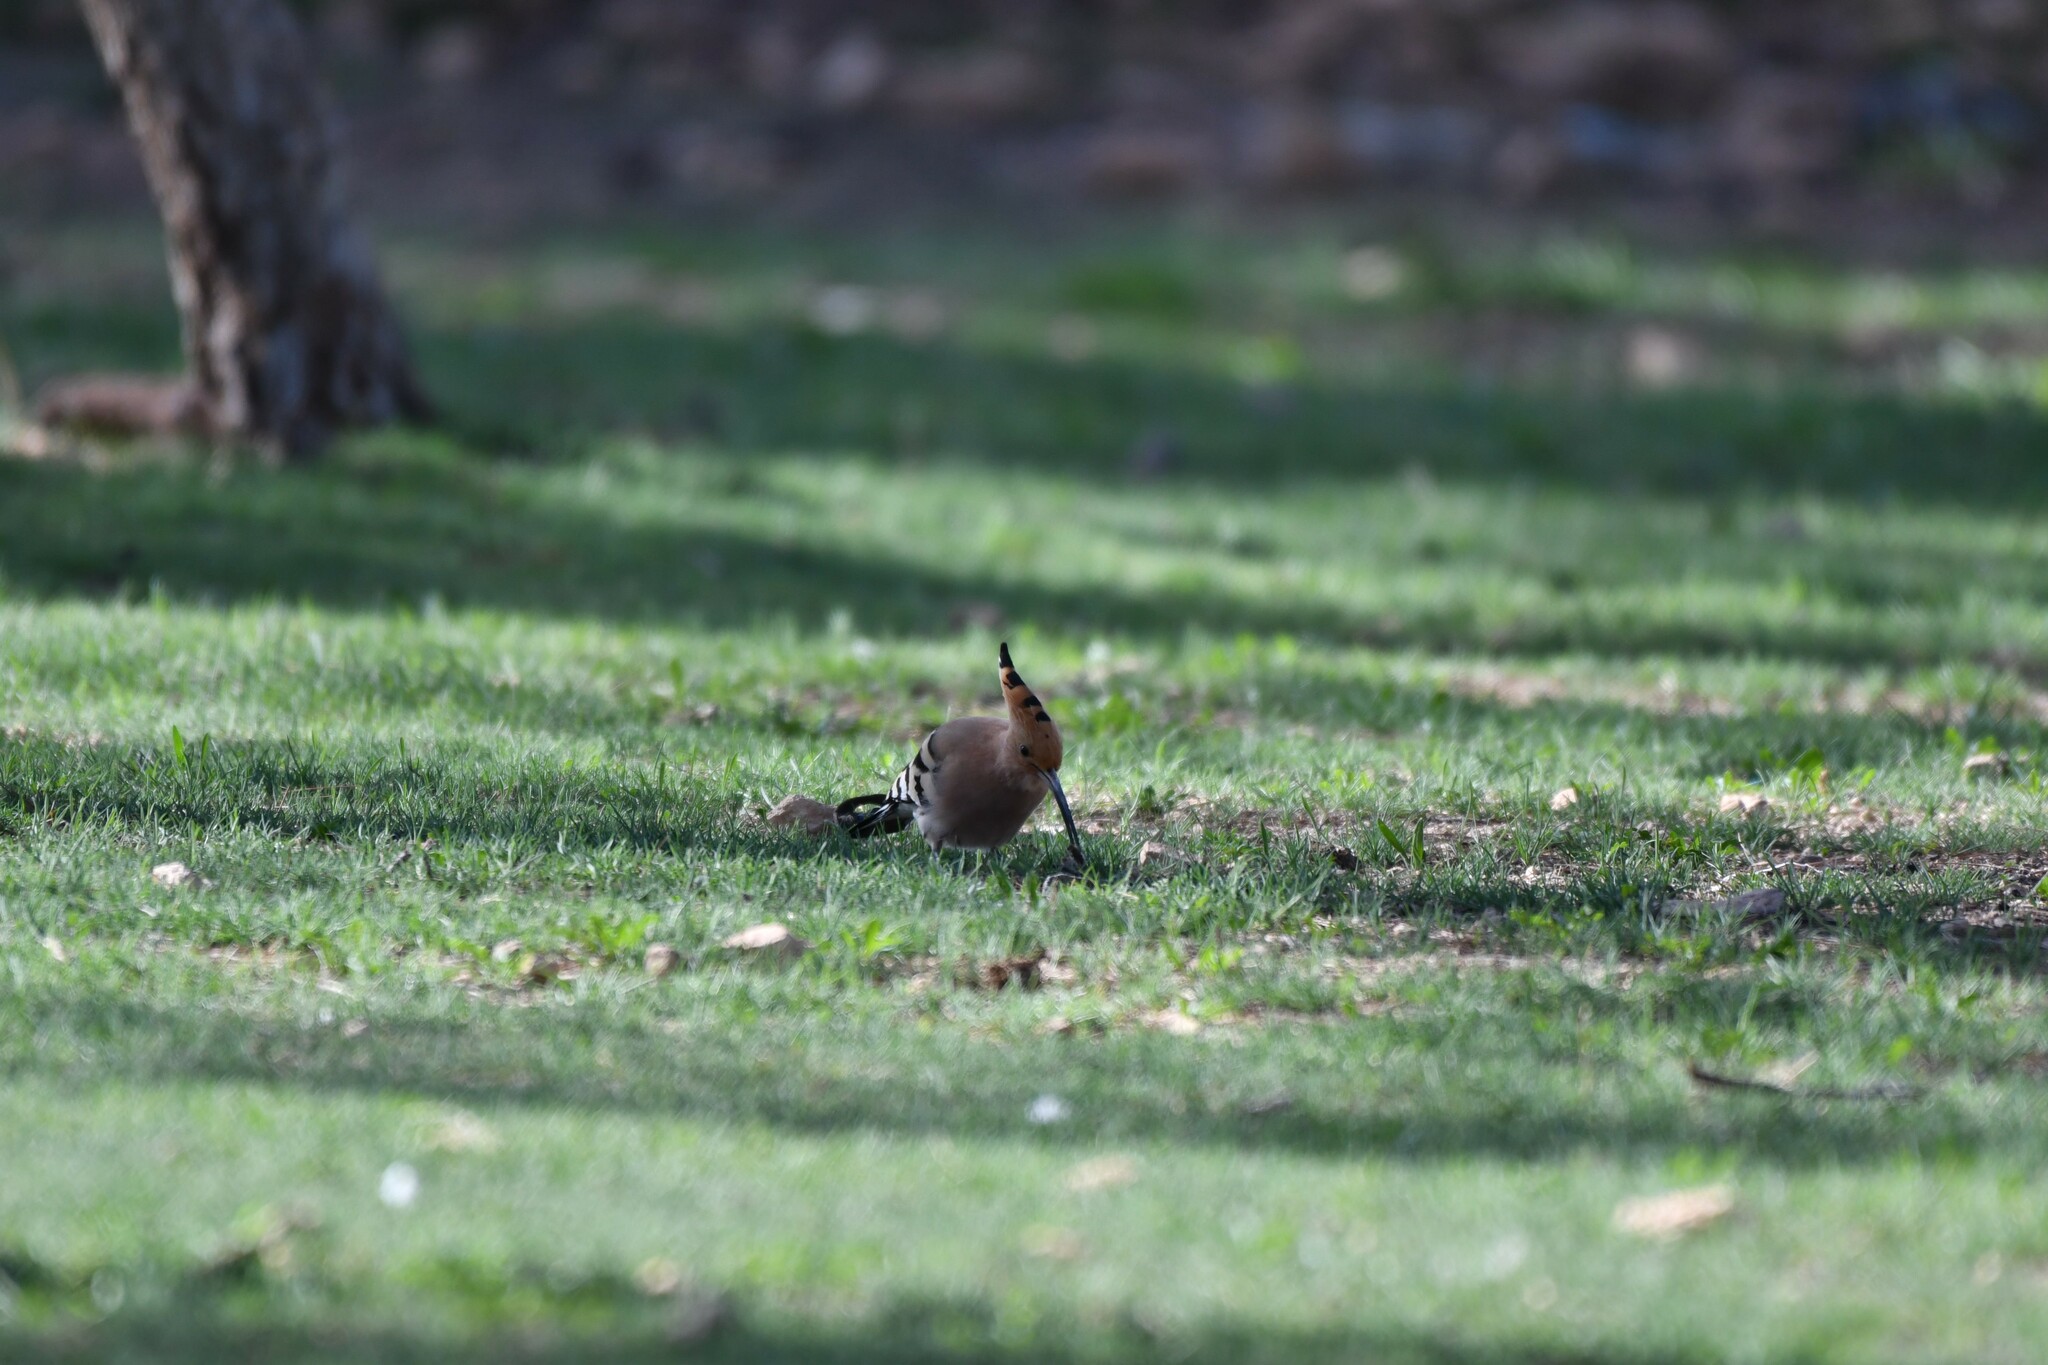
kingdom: Animalia
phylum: Chordata
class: Aves
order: Bucerotiformes
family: Upupidae
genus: Upupa
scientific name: Upupa epops
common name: Eurasian hoopoe
